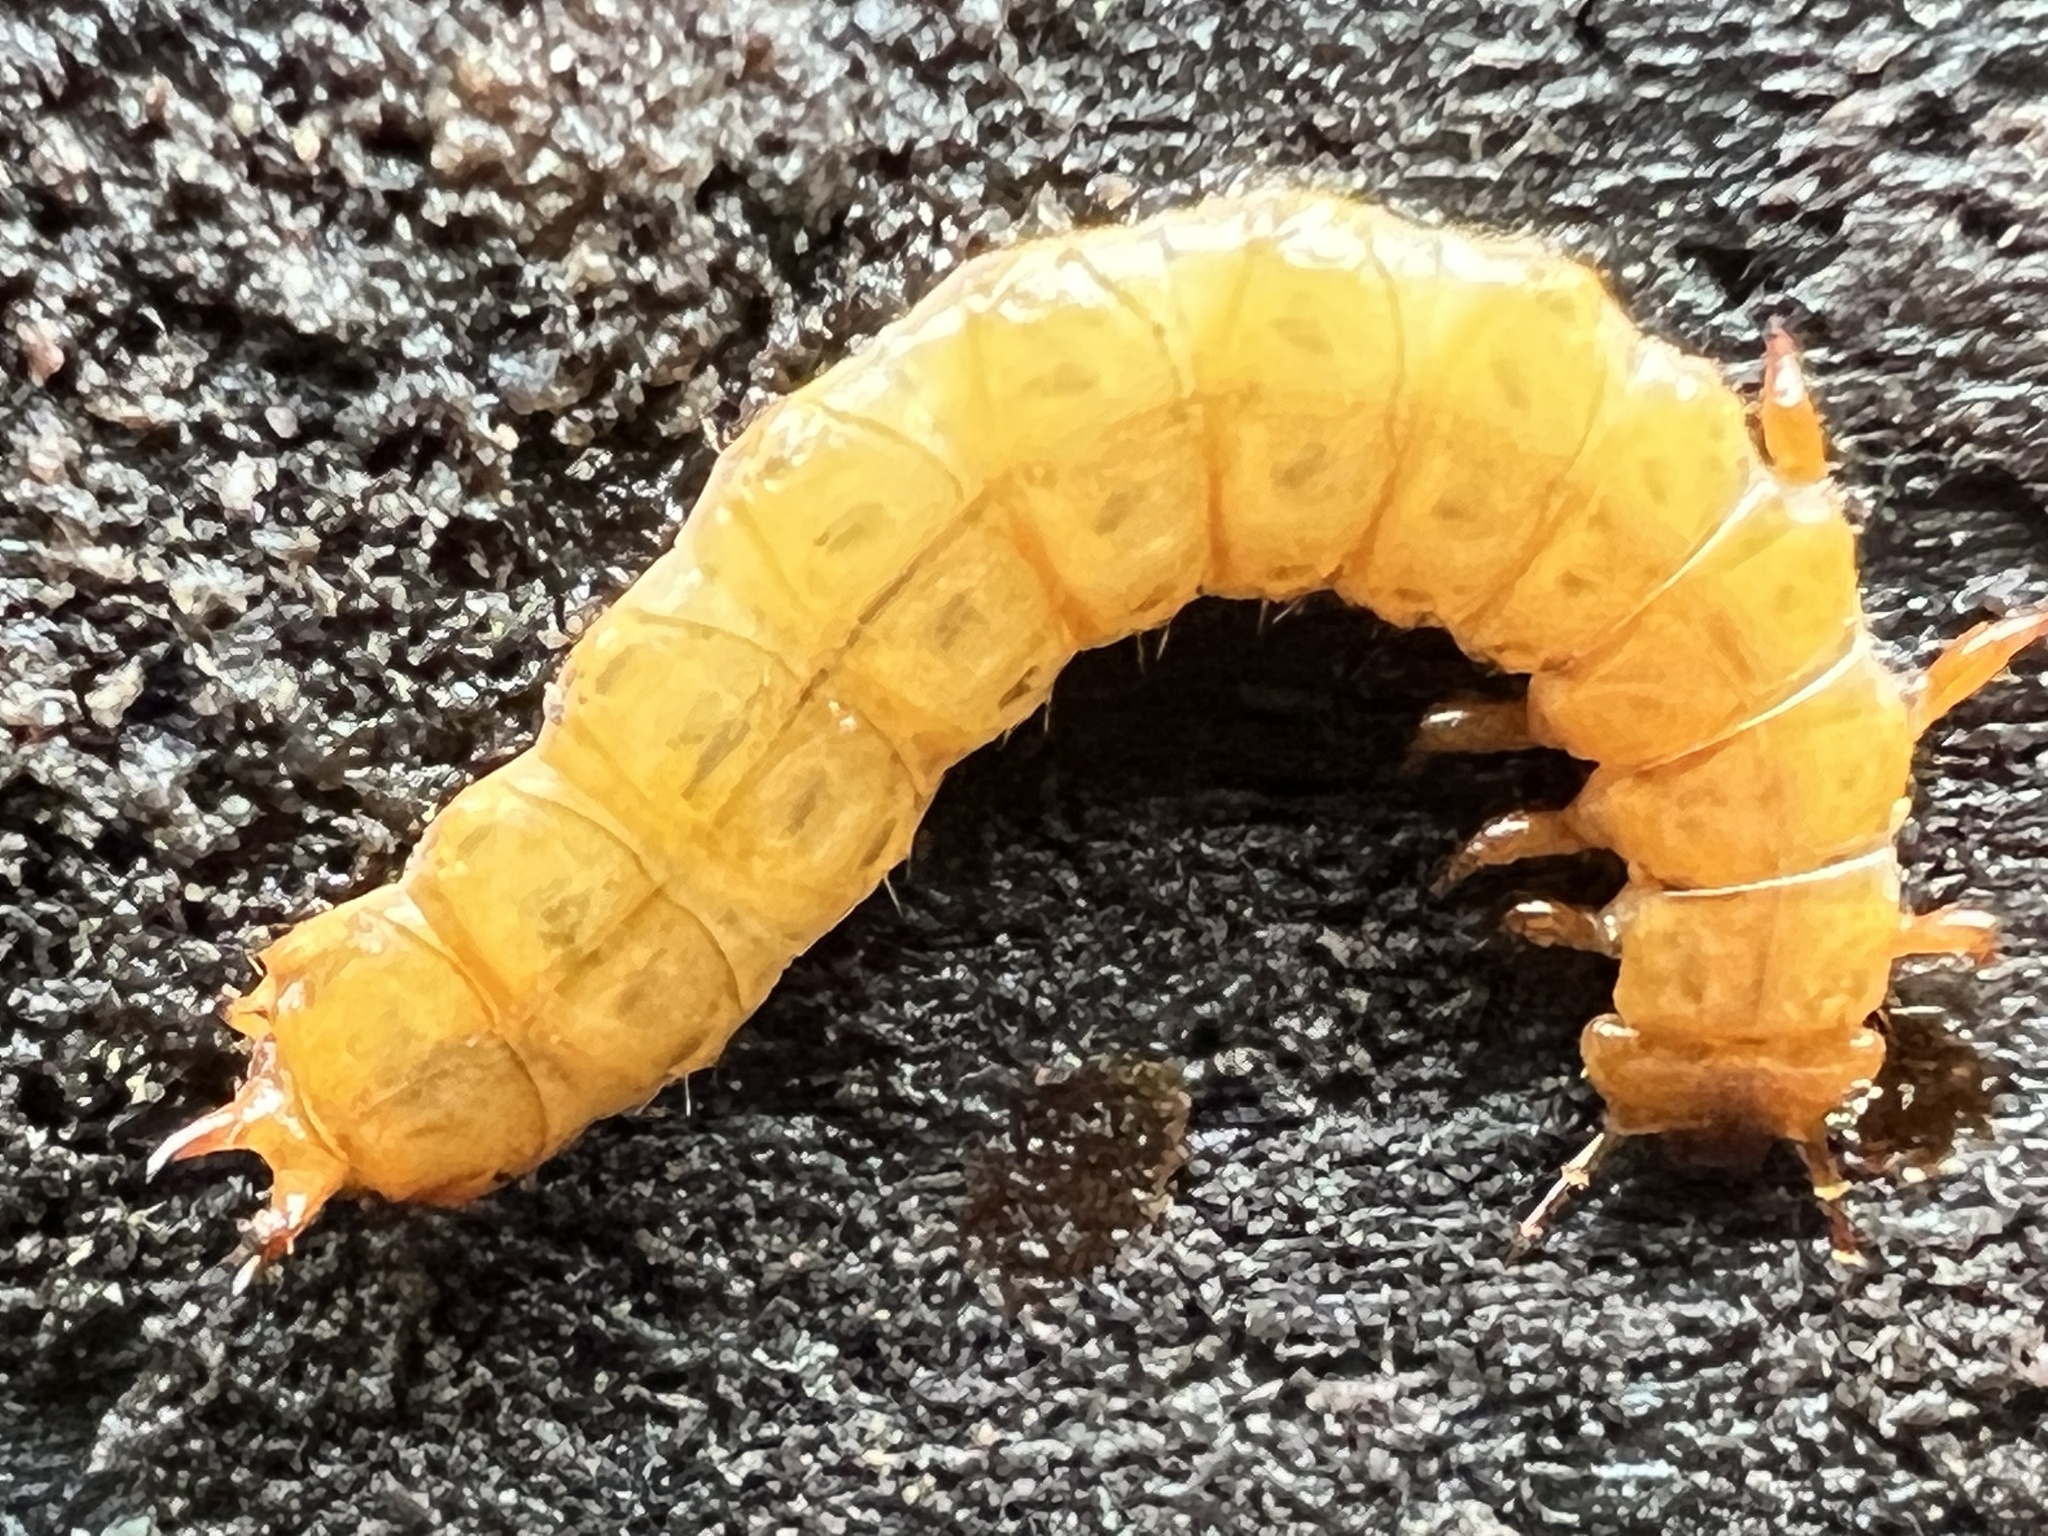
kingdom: Animalia
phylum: Arthropoda
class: Insecta
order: Coleoptera
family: Cucujidae
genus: Cucujus
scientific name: Cucujus clavipes
